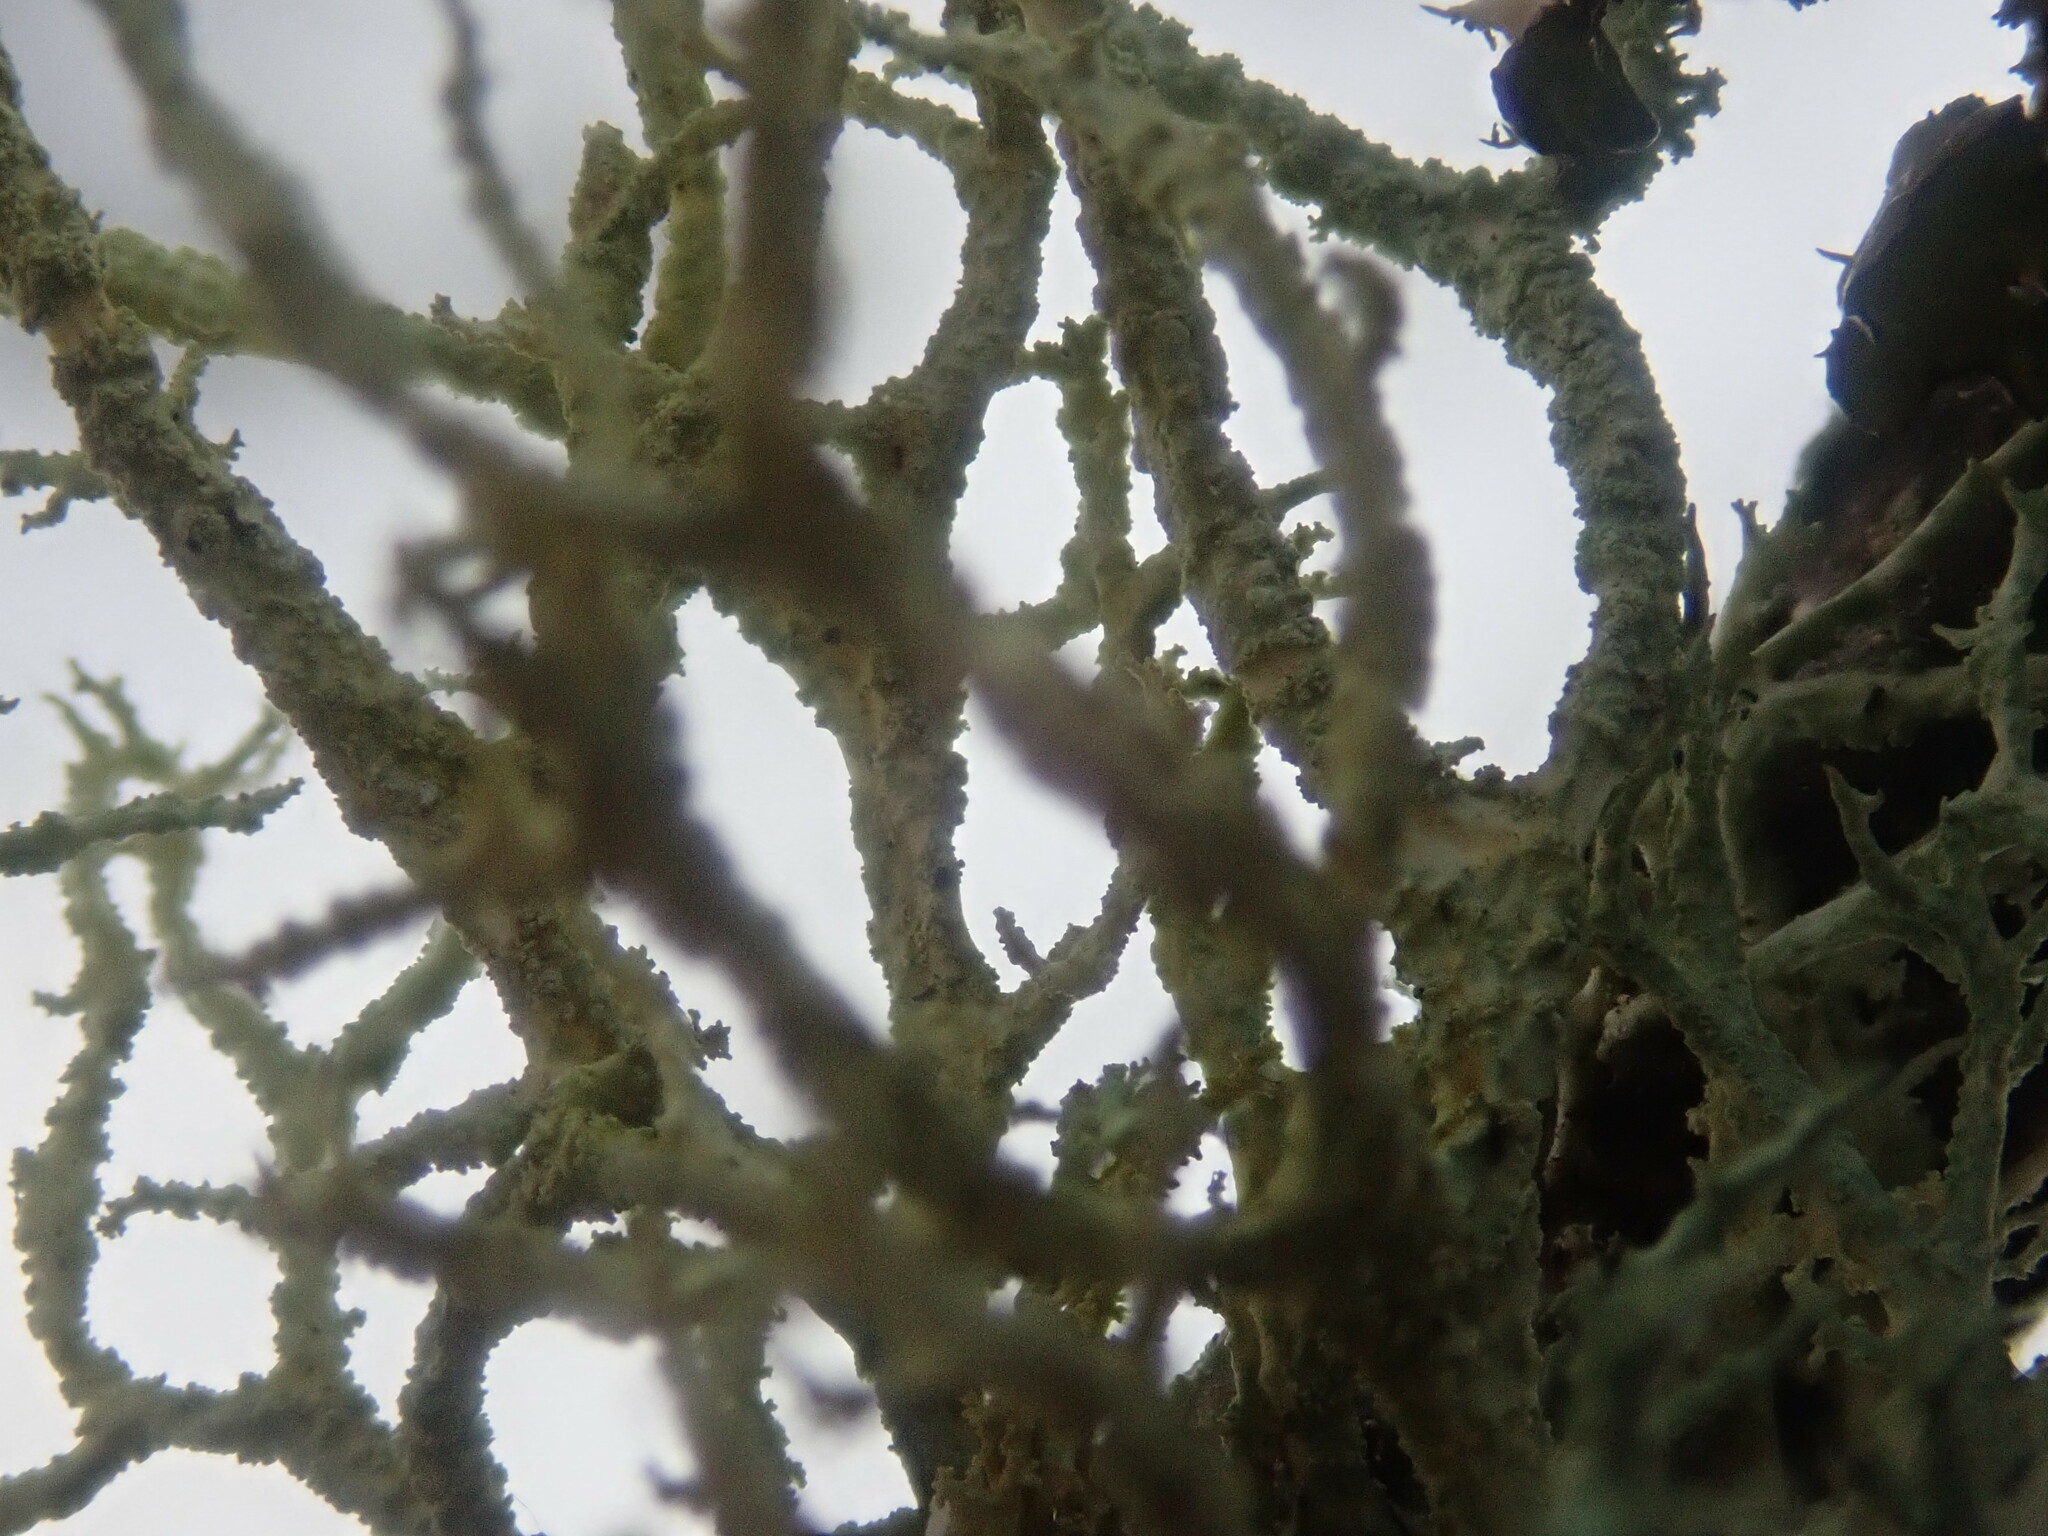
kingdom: Fungi
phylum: Ascomycota
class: Lecanoromycetes
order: Lecanorales
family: Parmeliaceae
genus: Evernia
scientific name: Evernia mesomorpha
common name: Boreal oak moss lichen
